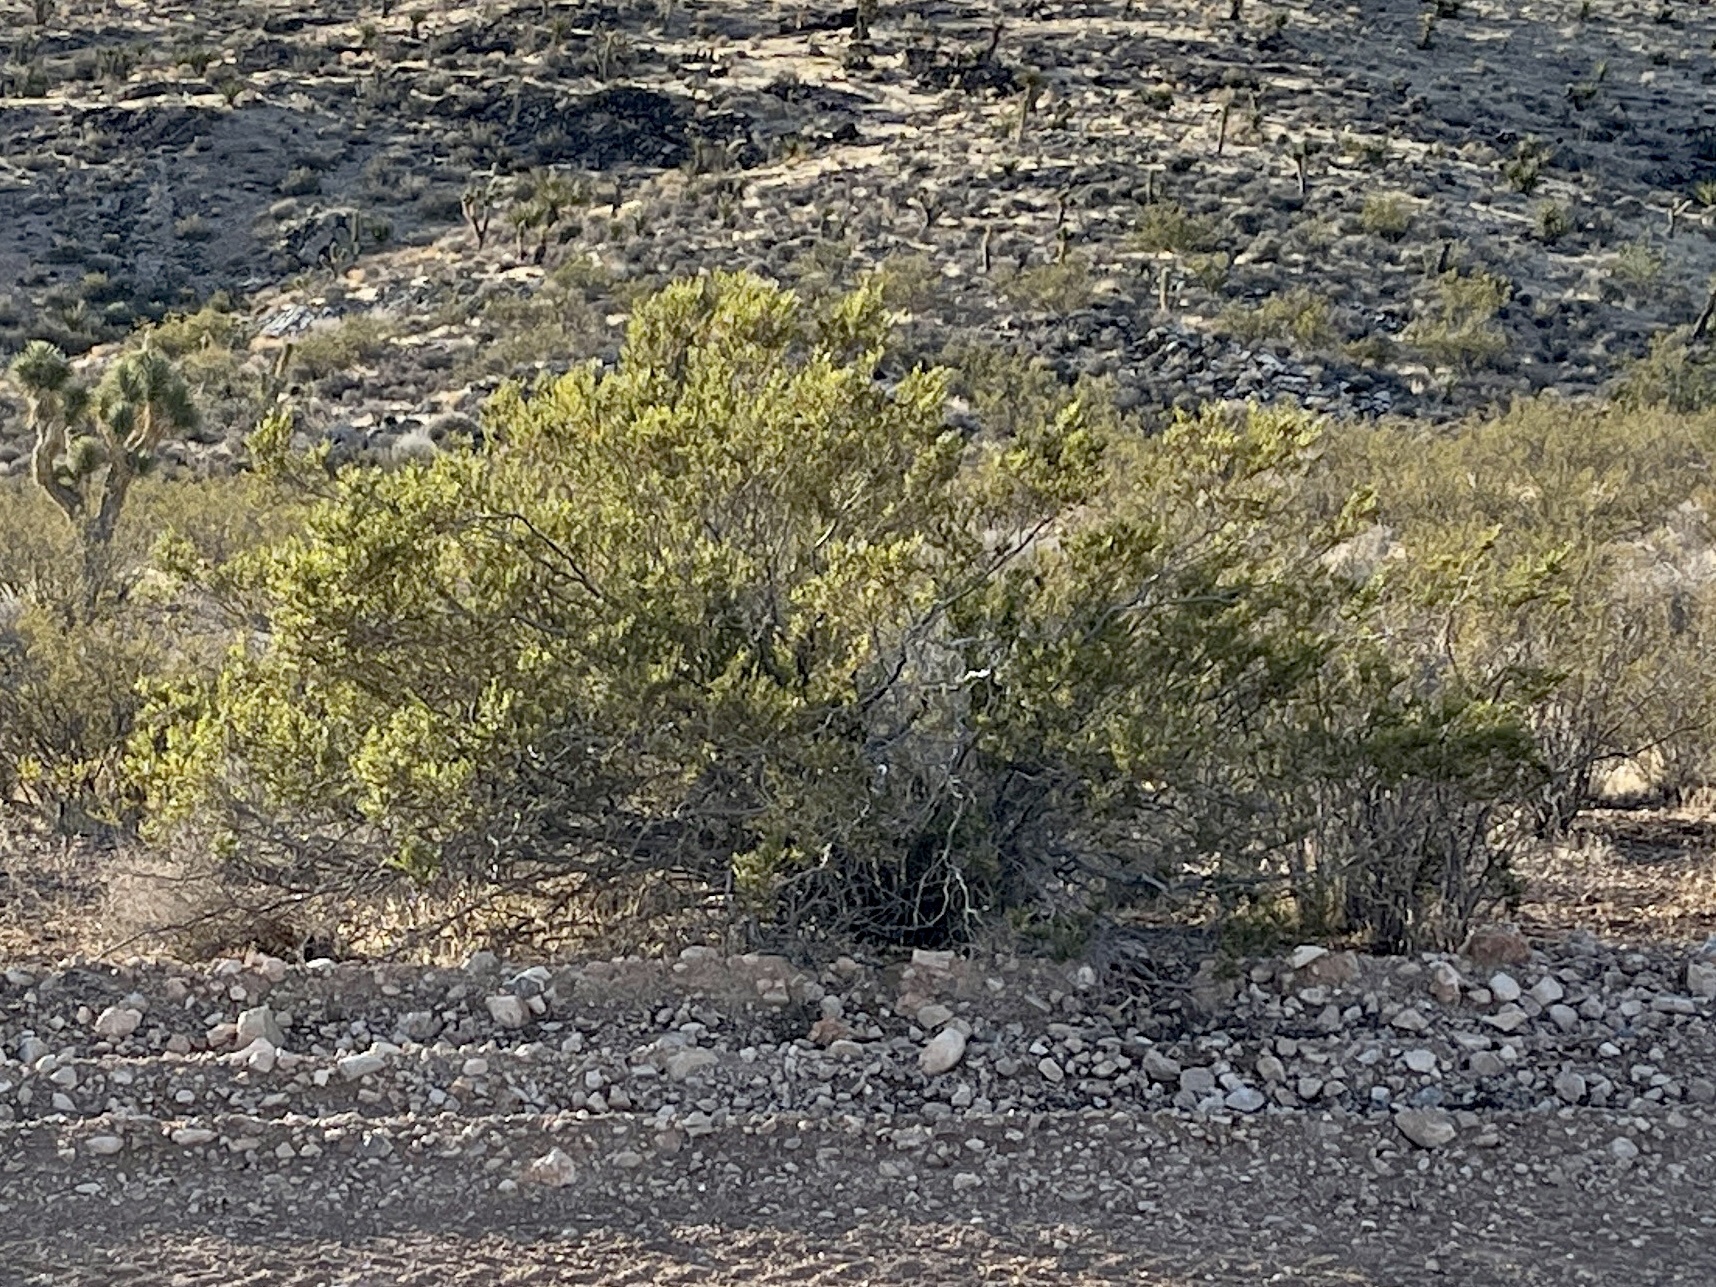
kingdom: Plantae
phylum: Tracheophyta
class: Magnoliopsida
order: Zygophyllales
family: Zygophyllaceae
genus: Larrea
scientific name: Larrea tridentata
